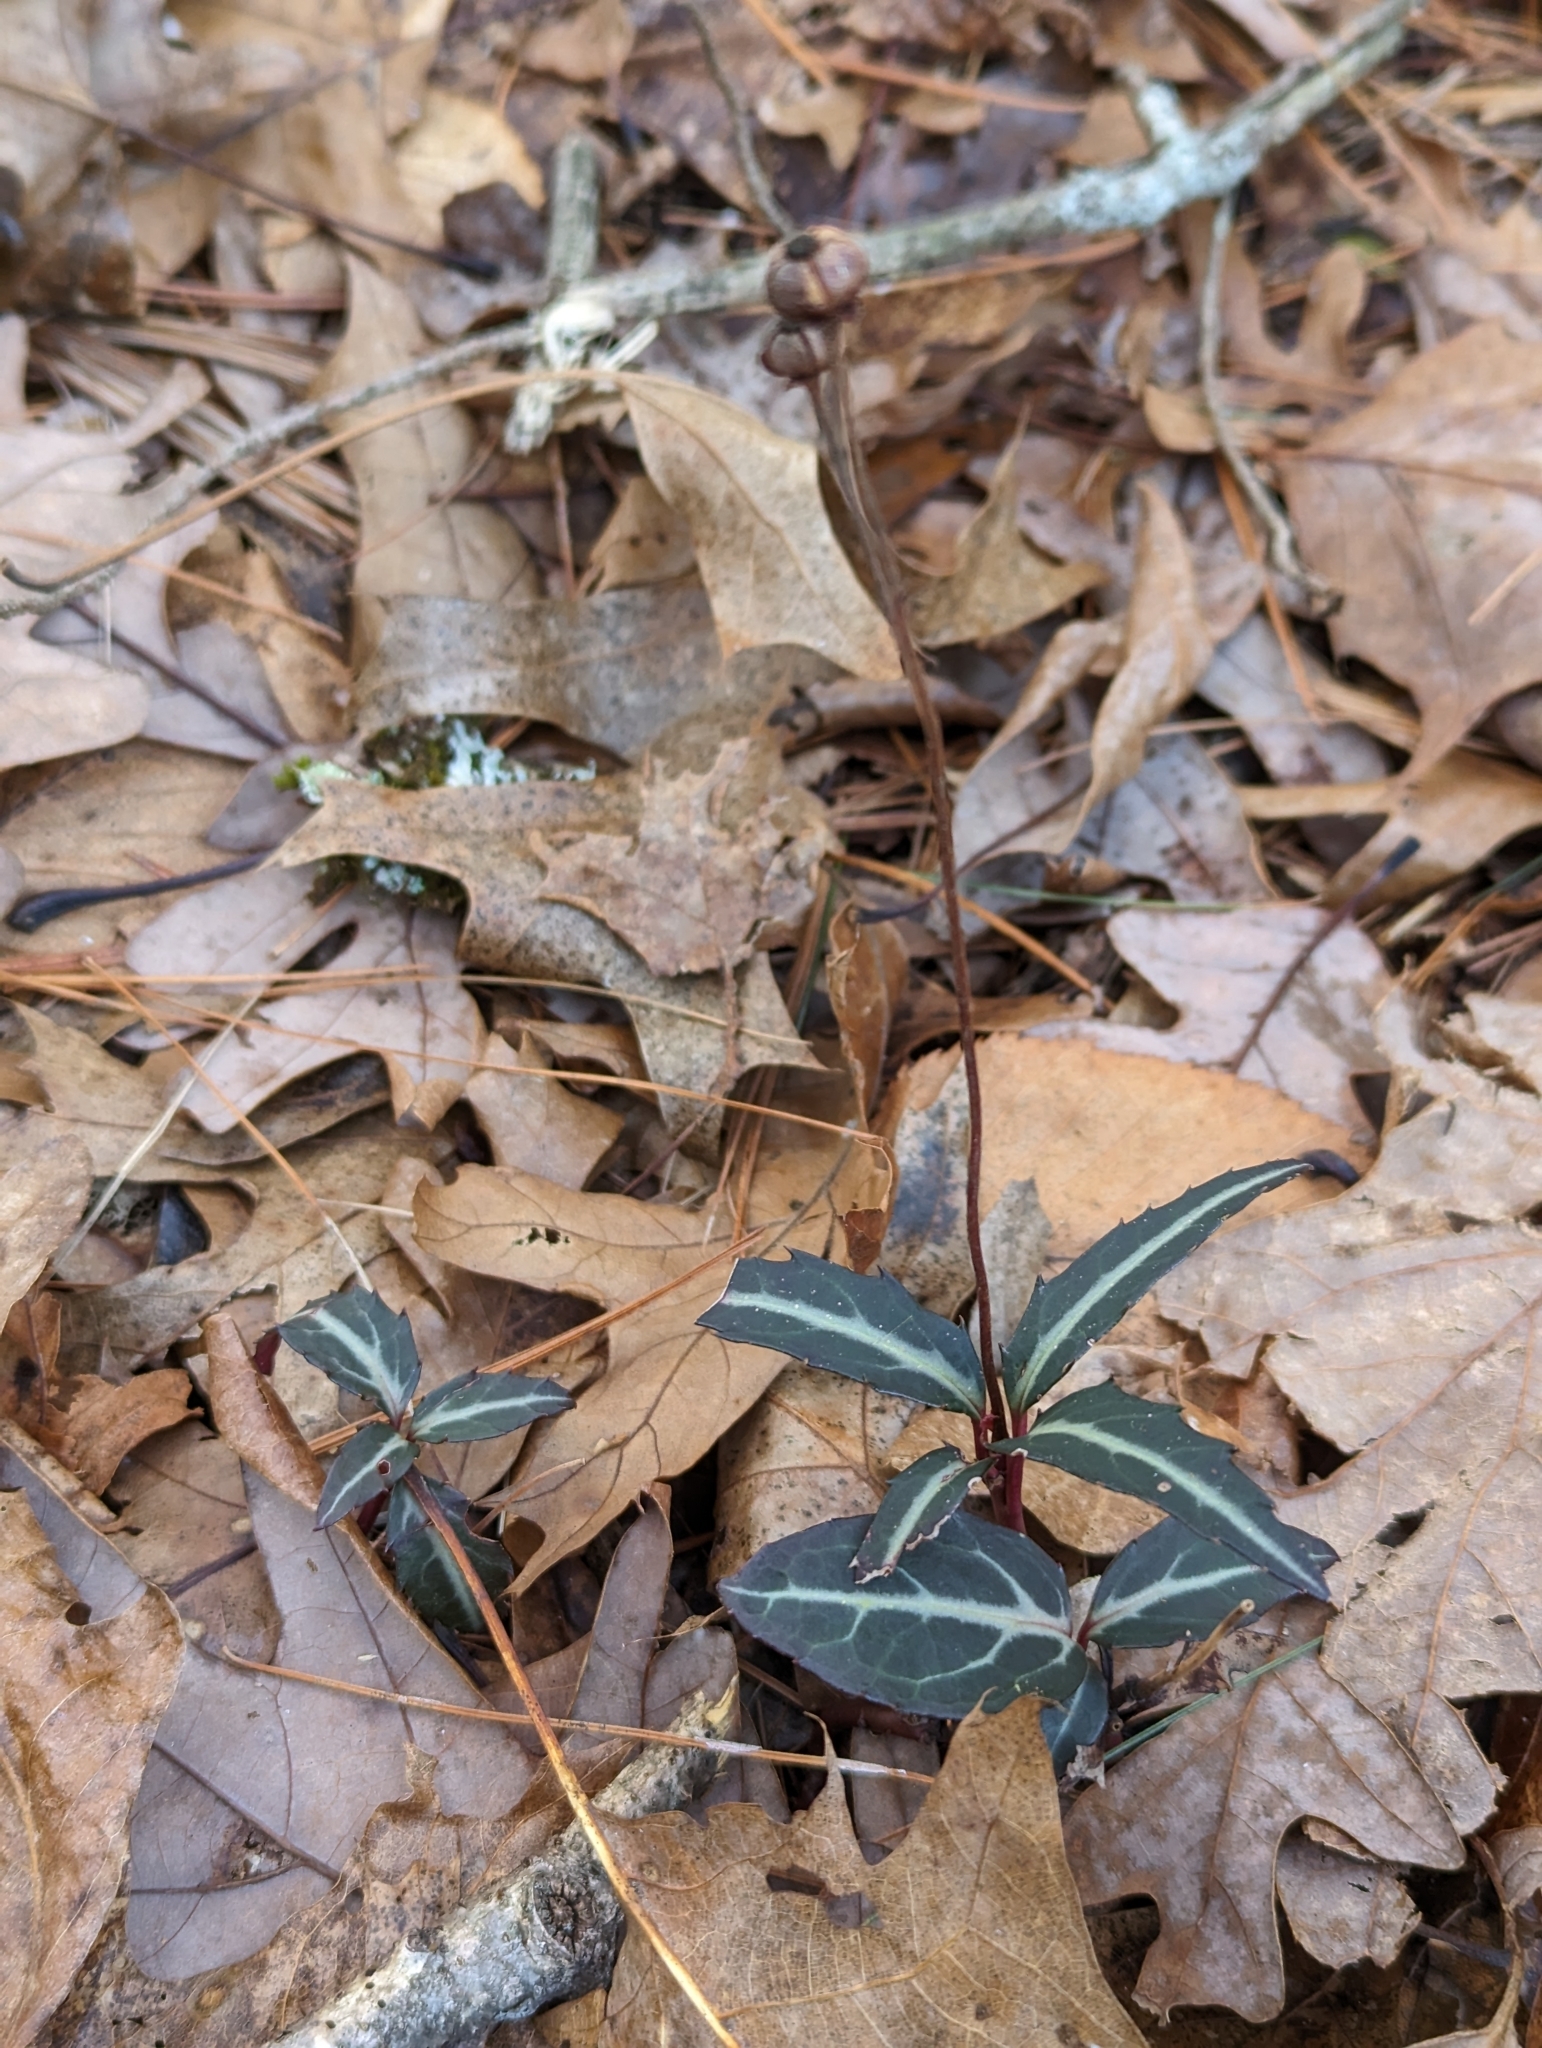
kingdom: Plantae
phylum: Tracheophyta
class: Magnoliopsida
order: Ericales
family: Ericaceae
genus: Chimaphila
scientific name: Chimaphila maculata
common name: Spotted pipsissewa
